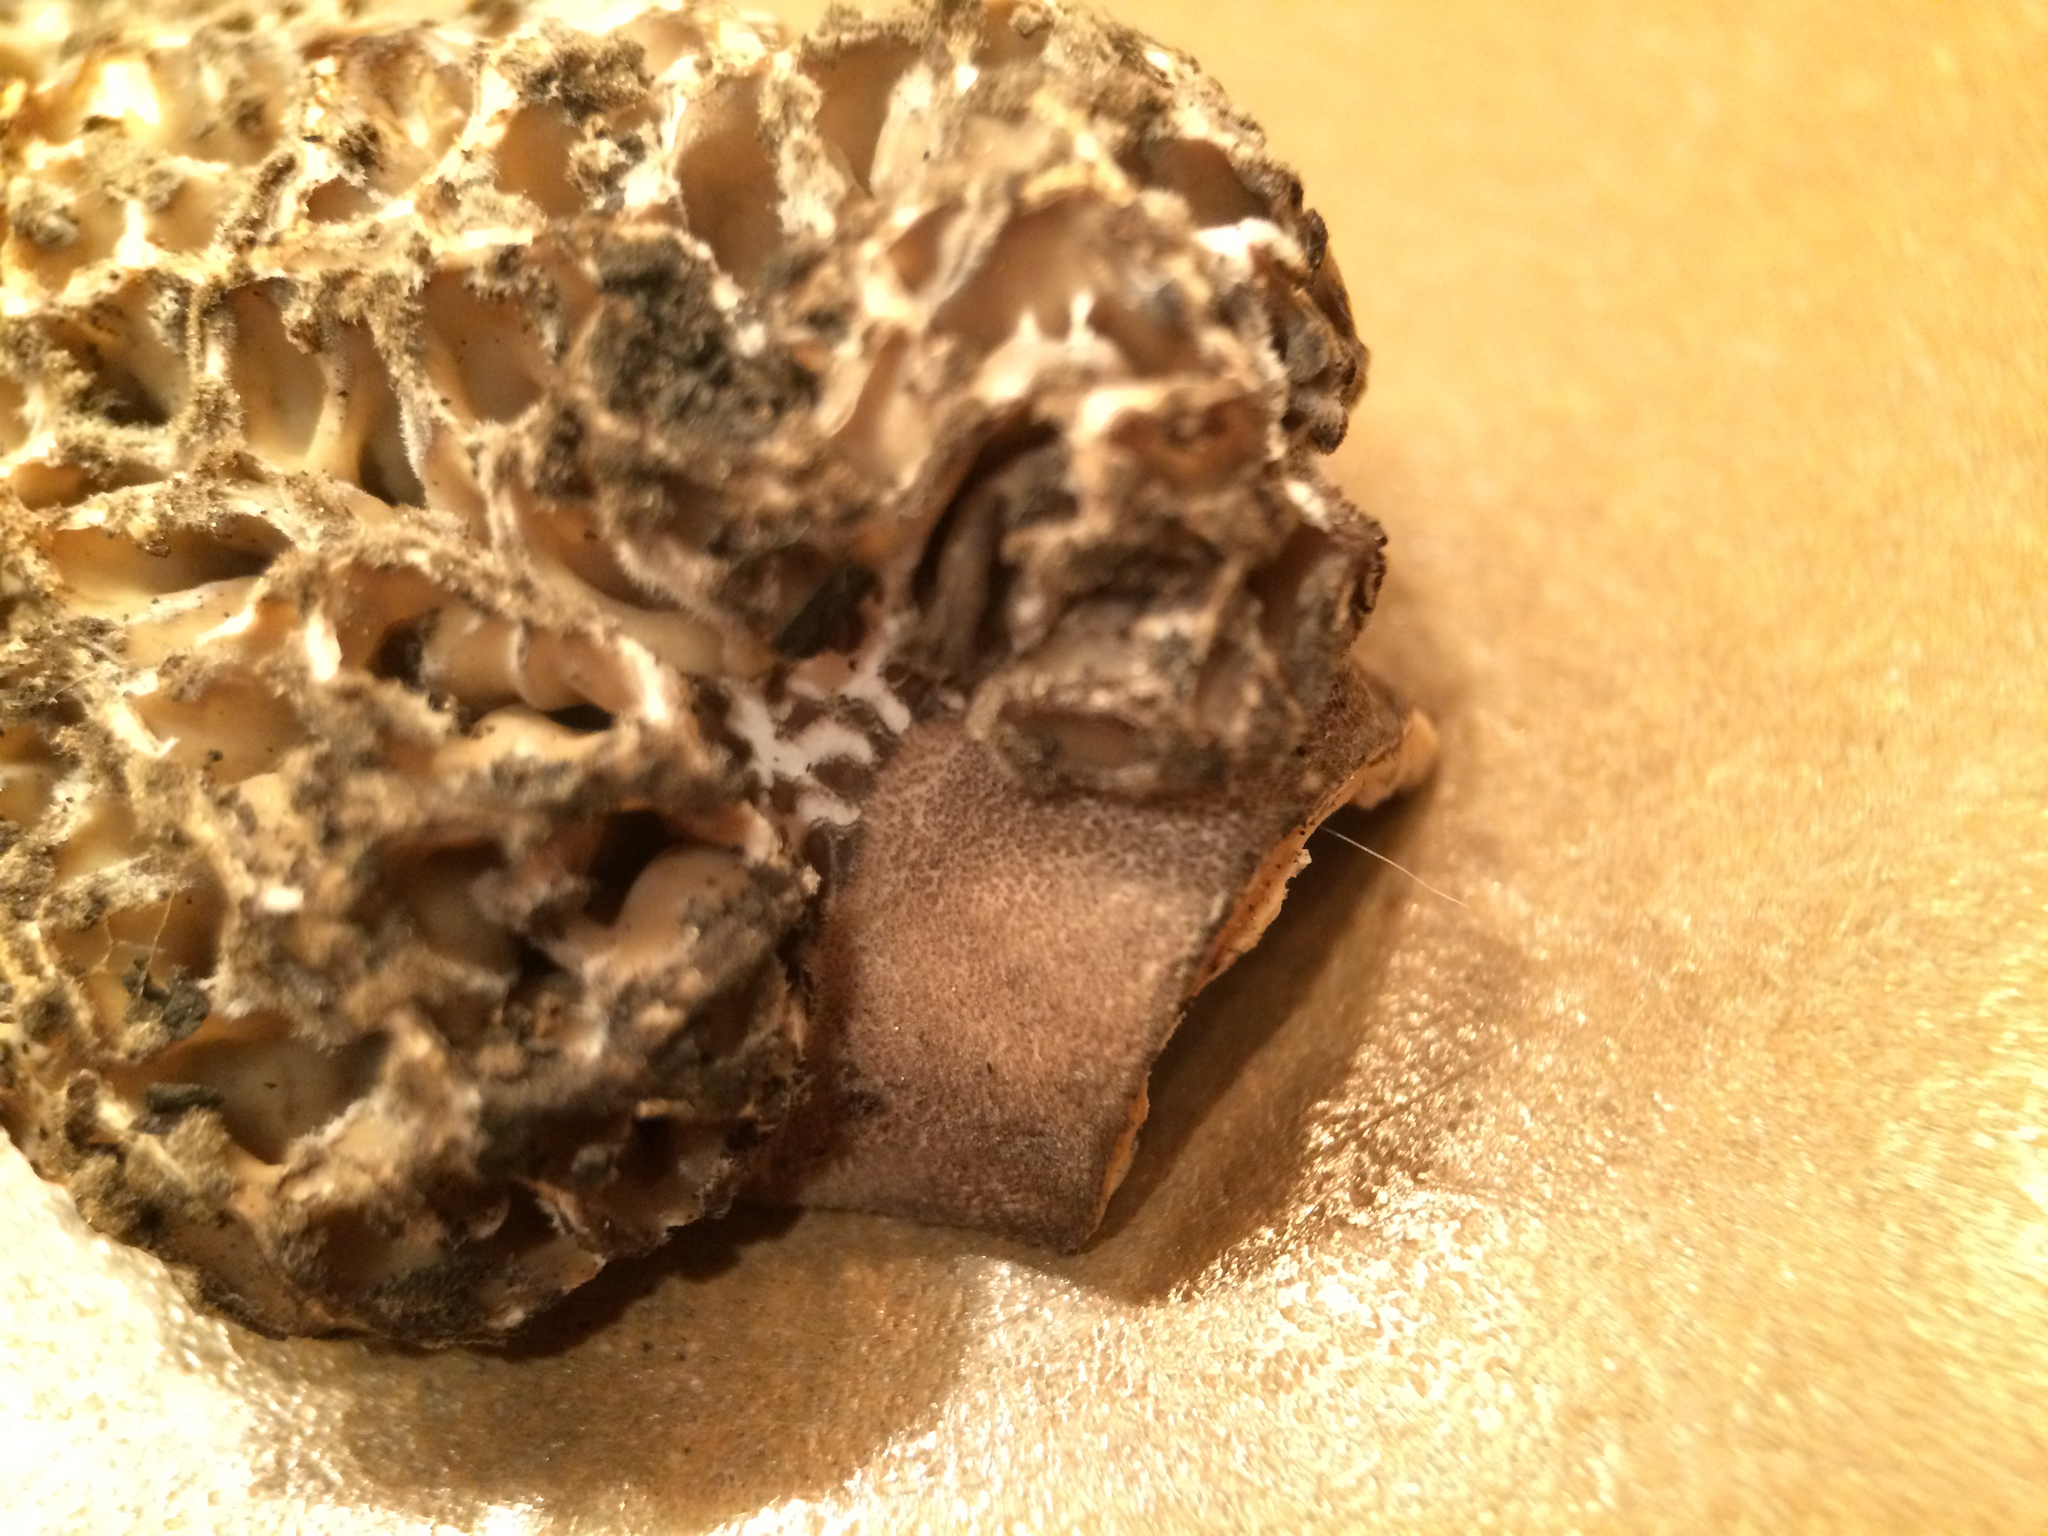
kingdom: Fungi
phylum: Ascomycota
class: Pezizomycetes
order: Pezizales
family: Morchellaceae
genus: Morchella
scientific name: Morchella tomentosa
